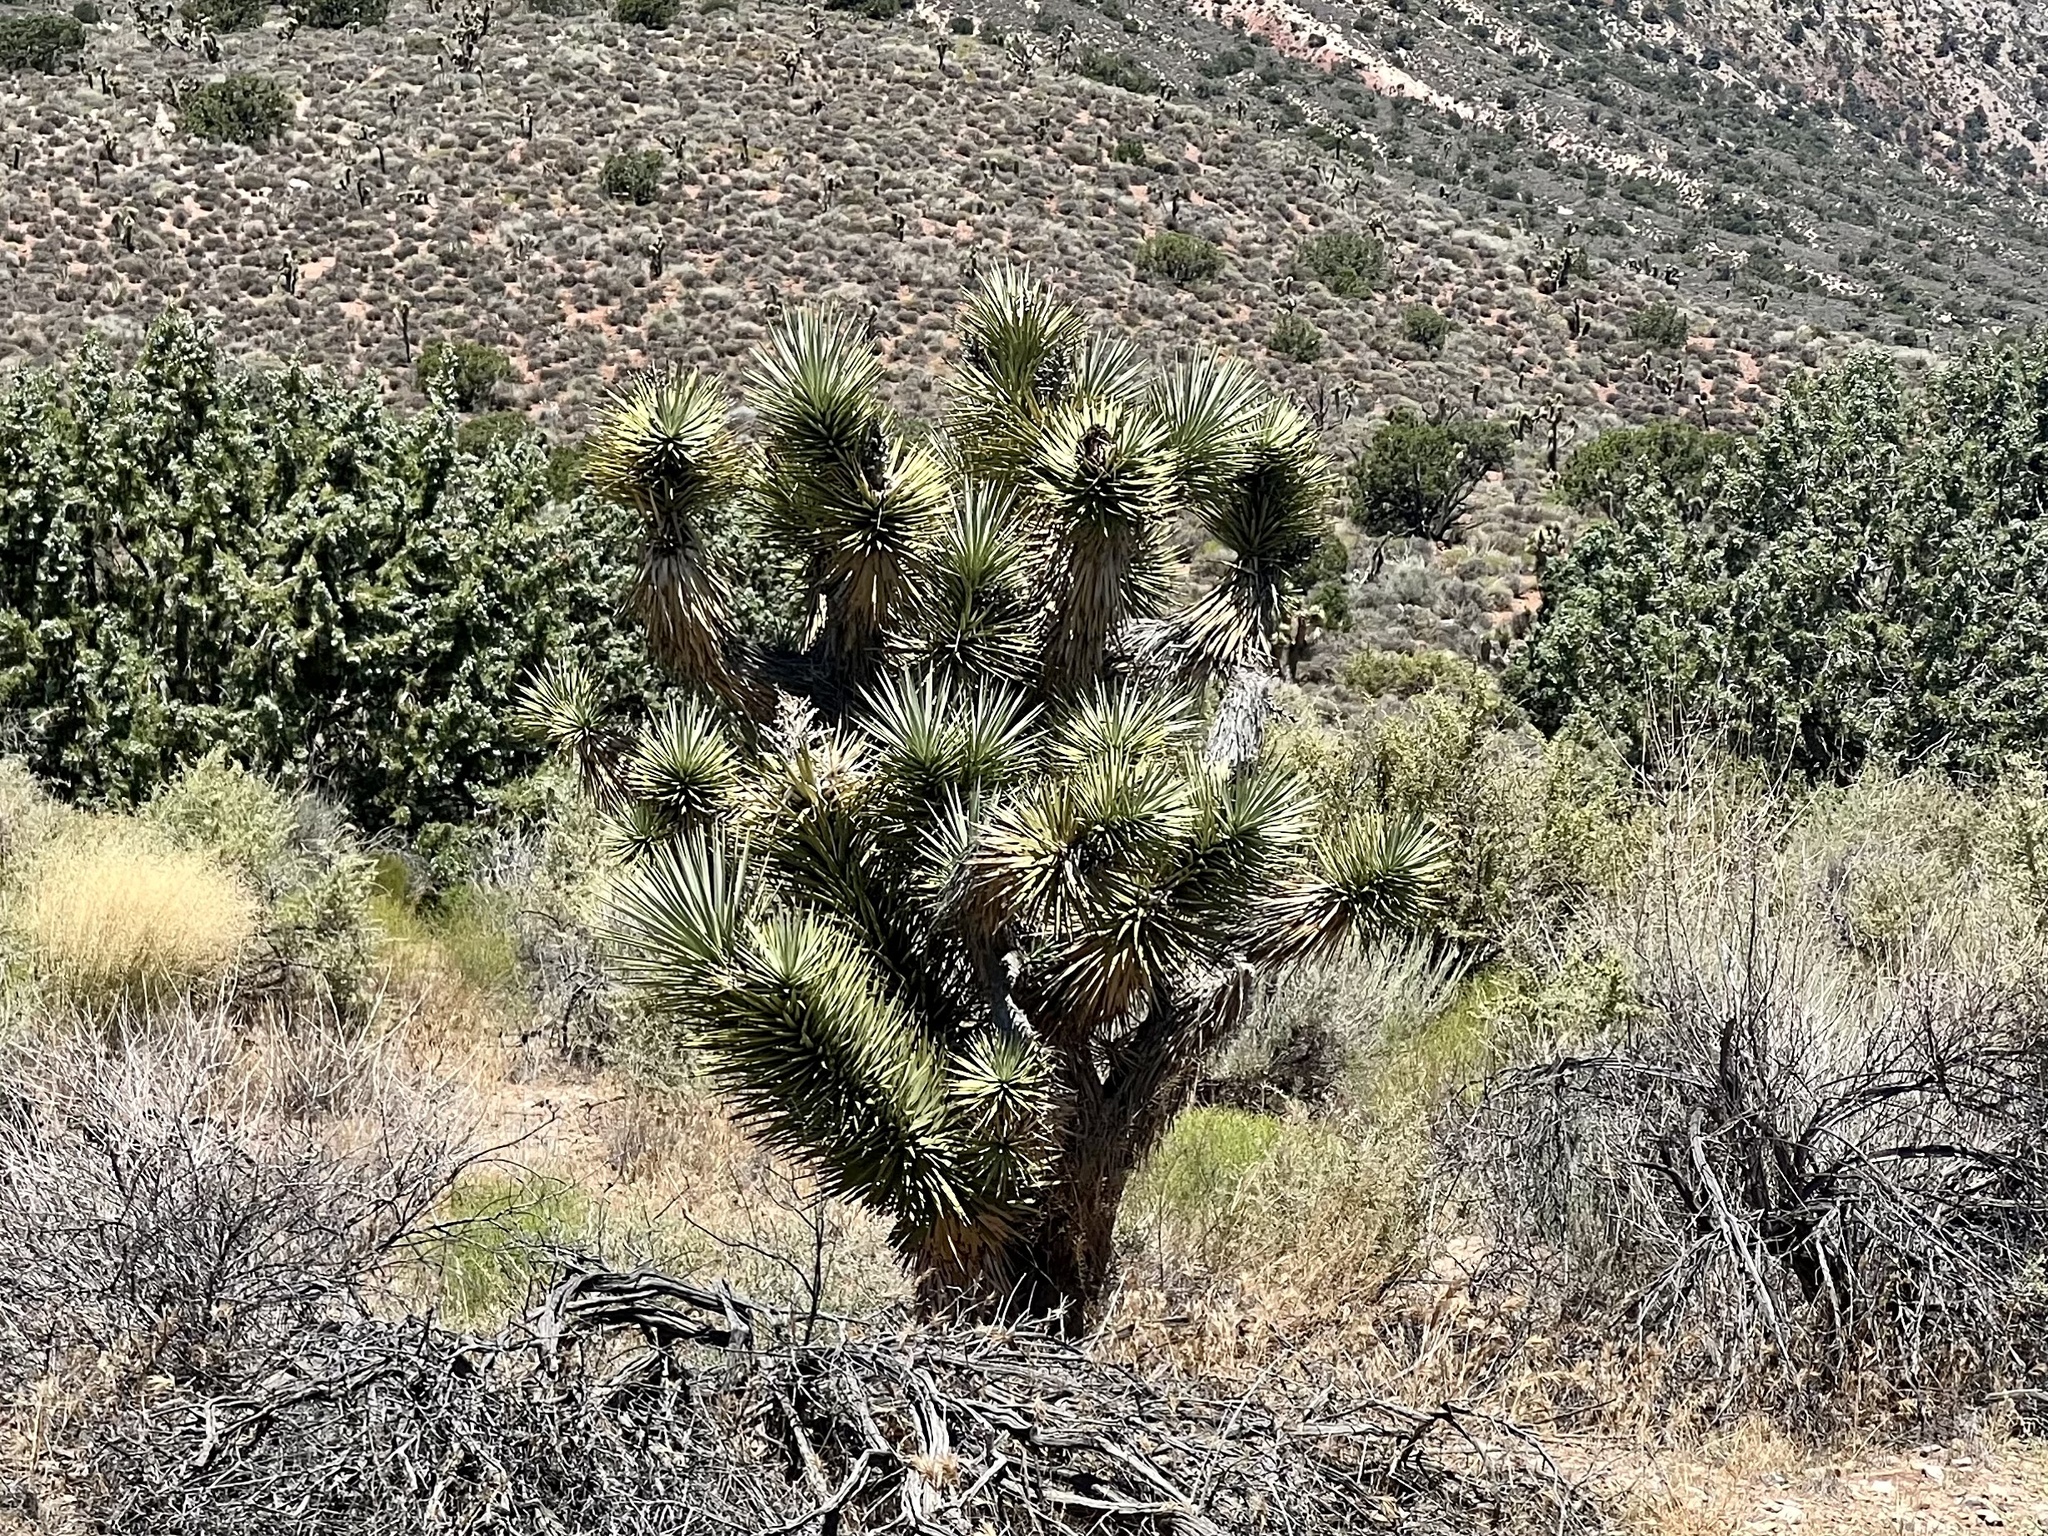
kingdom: Plantae
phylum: Tracheophyta
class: Liliopsida
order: Asparagales
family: Asparagaceae
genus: Yucca
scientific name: Yucca brevifolia
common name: Joshua tree
